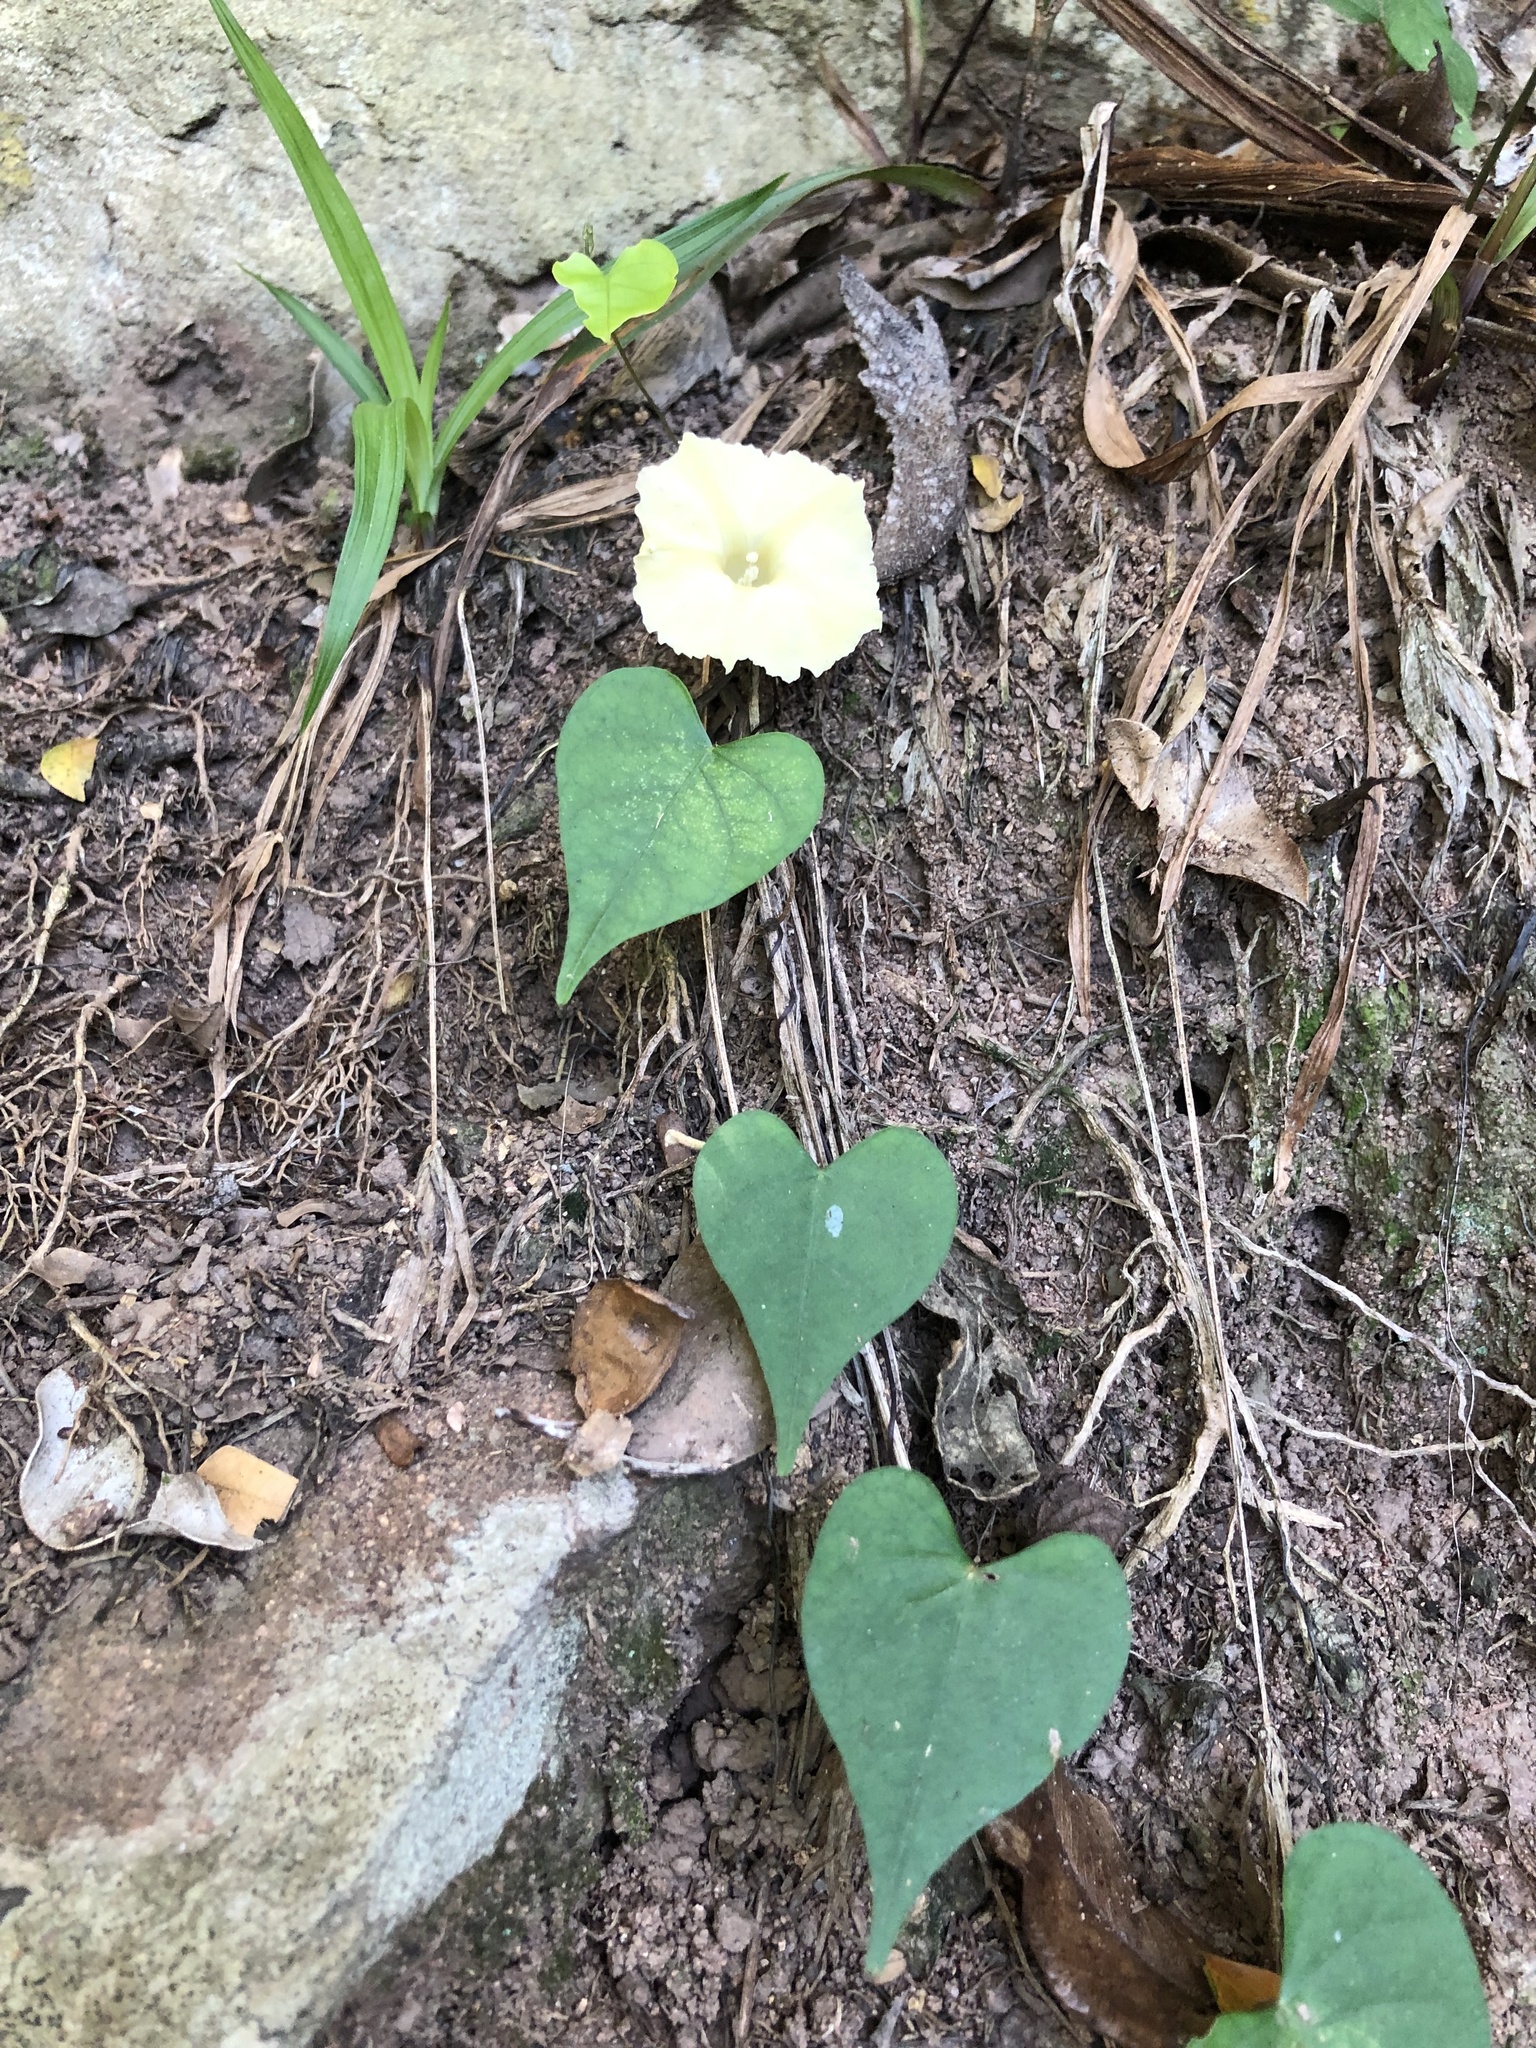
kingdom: Plantae
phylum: Tracheophyta
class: Magnoliopsida
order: Solanales
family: Convolvulaceae
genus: Ipomoea
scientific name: Ipomoea obscura
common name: Obscure morning-glory
